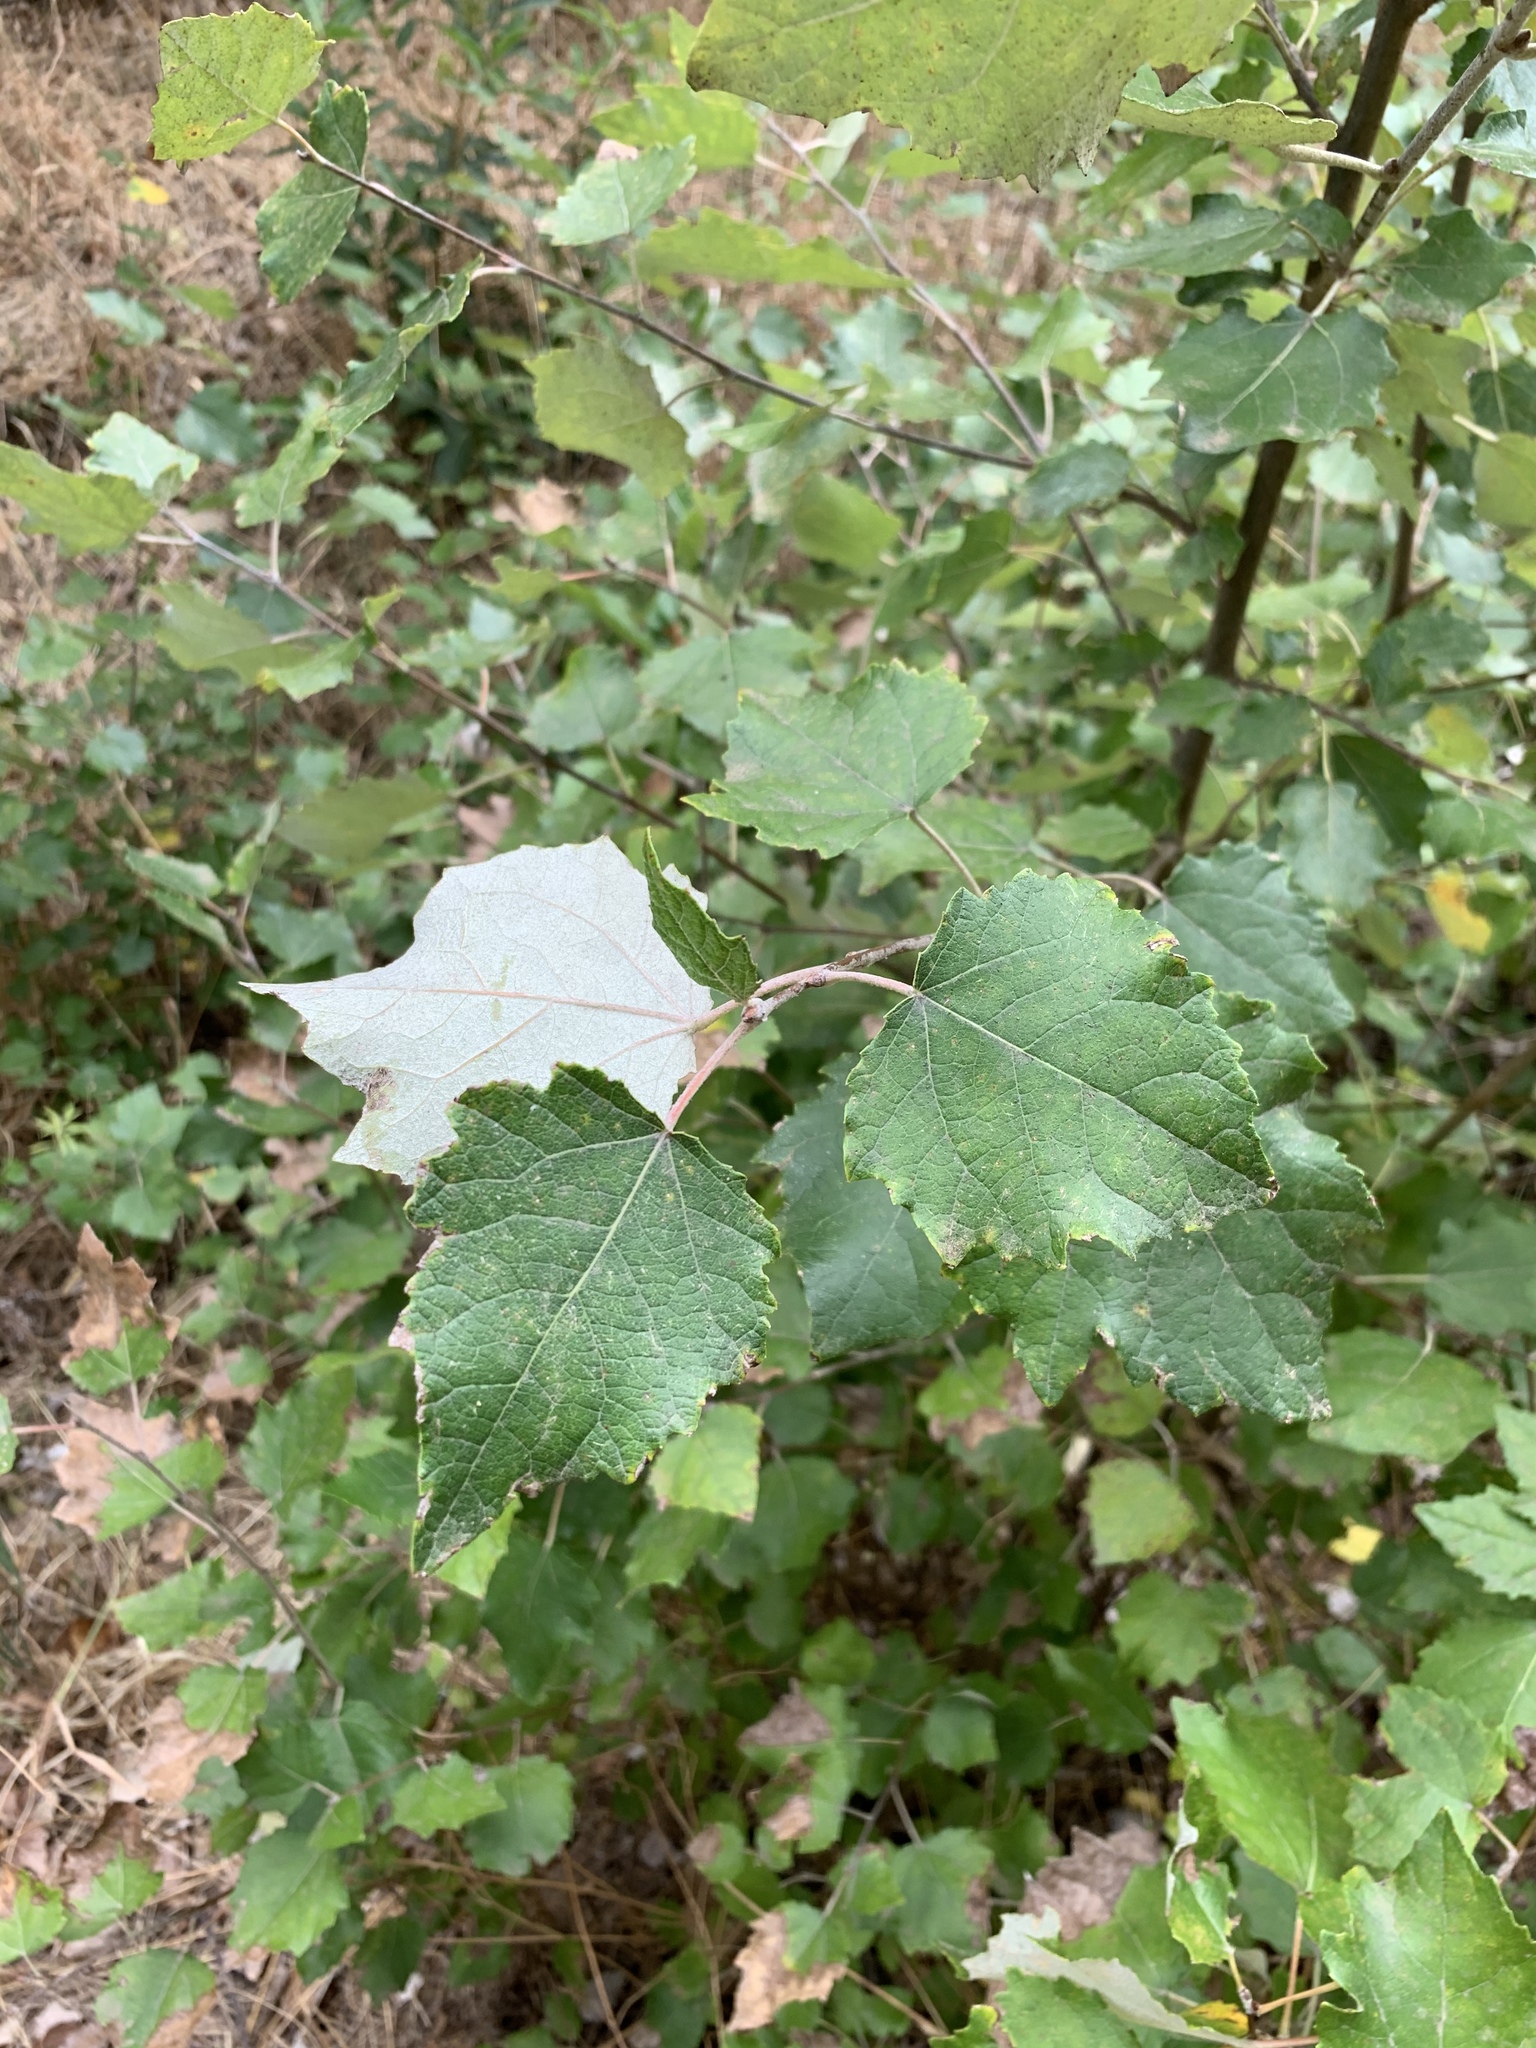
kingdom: Plantae
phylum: Tracheophyta
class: Magnoliopsida
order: Malpighiales
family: Salicaceae
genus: Populus
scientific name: Populus canescens
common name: Gray poplar
